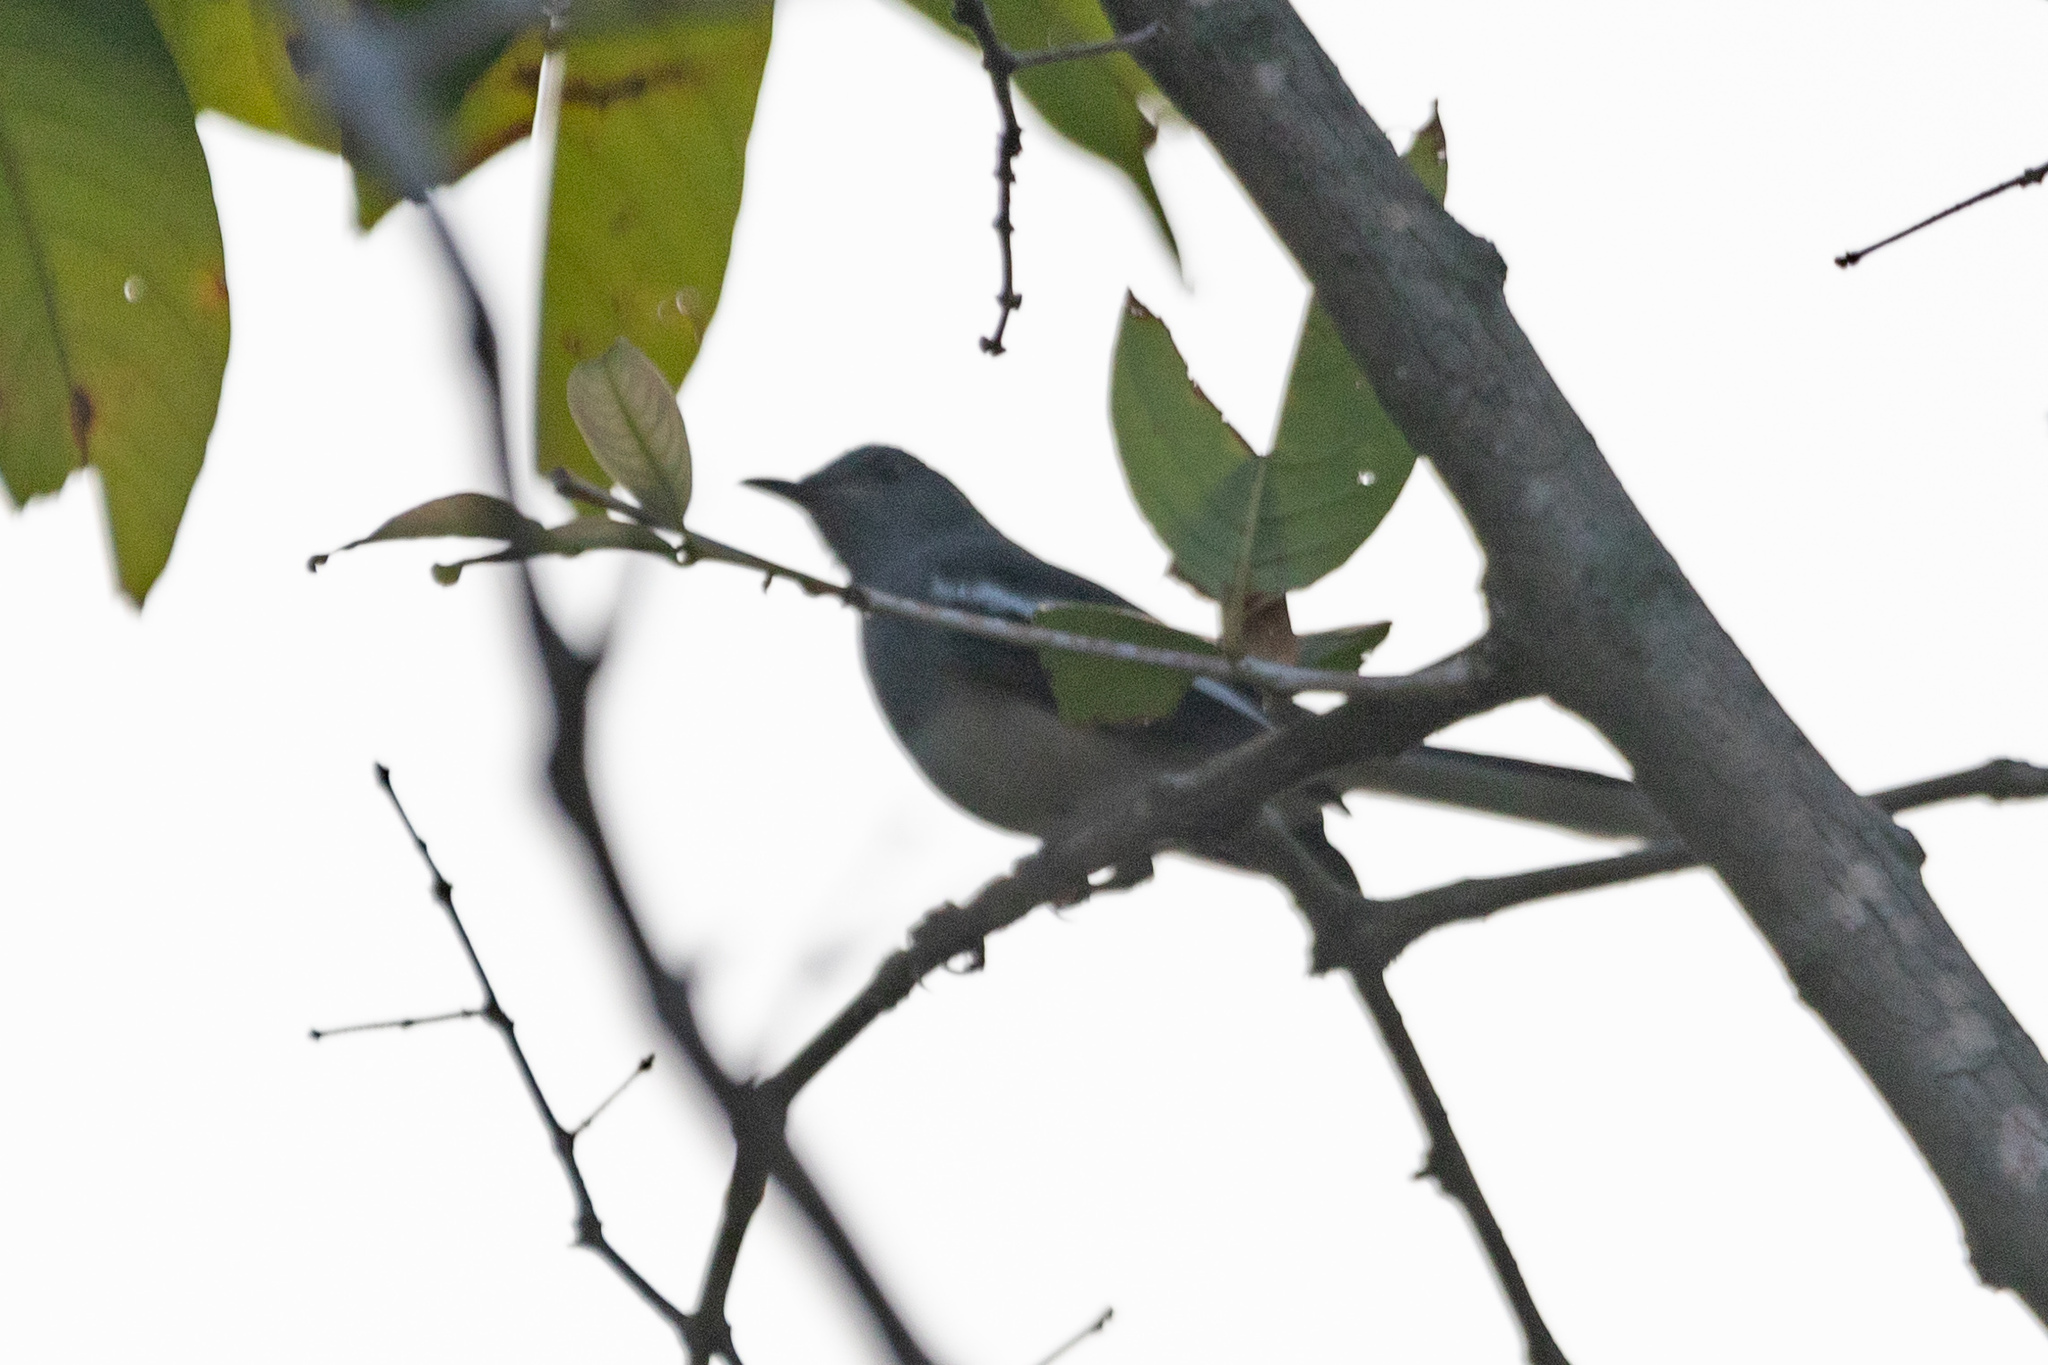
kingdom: Animalia
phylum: Chordata
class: Aves
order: Passeriformes
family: Muscicapidae
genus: Copsychus
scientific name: Copsychus saularis
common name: Oriental magpie-robin
